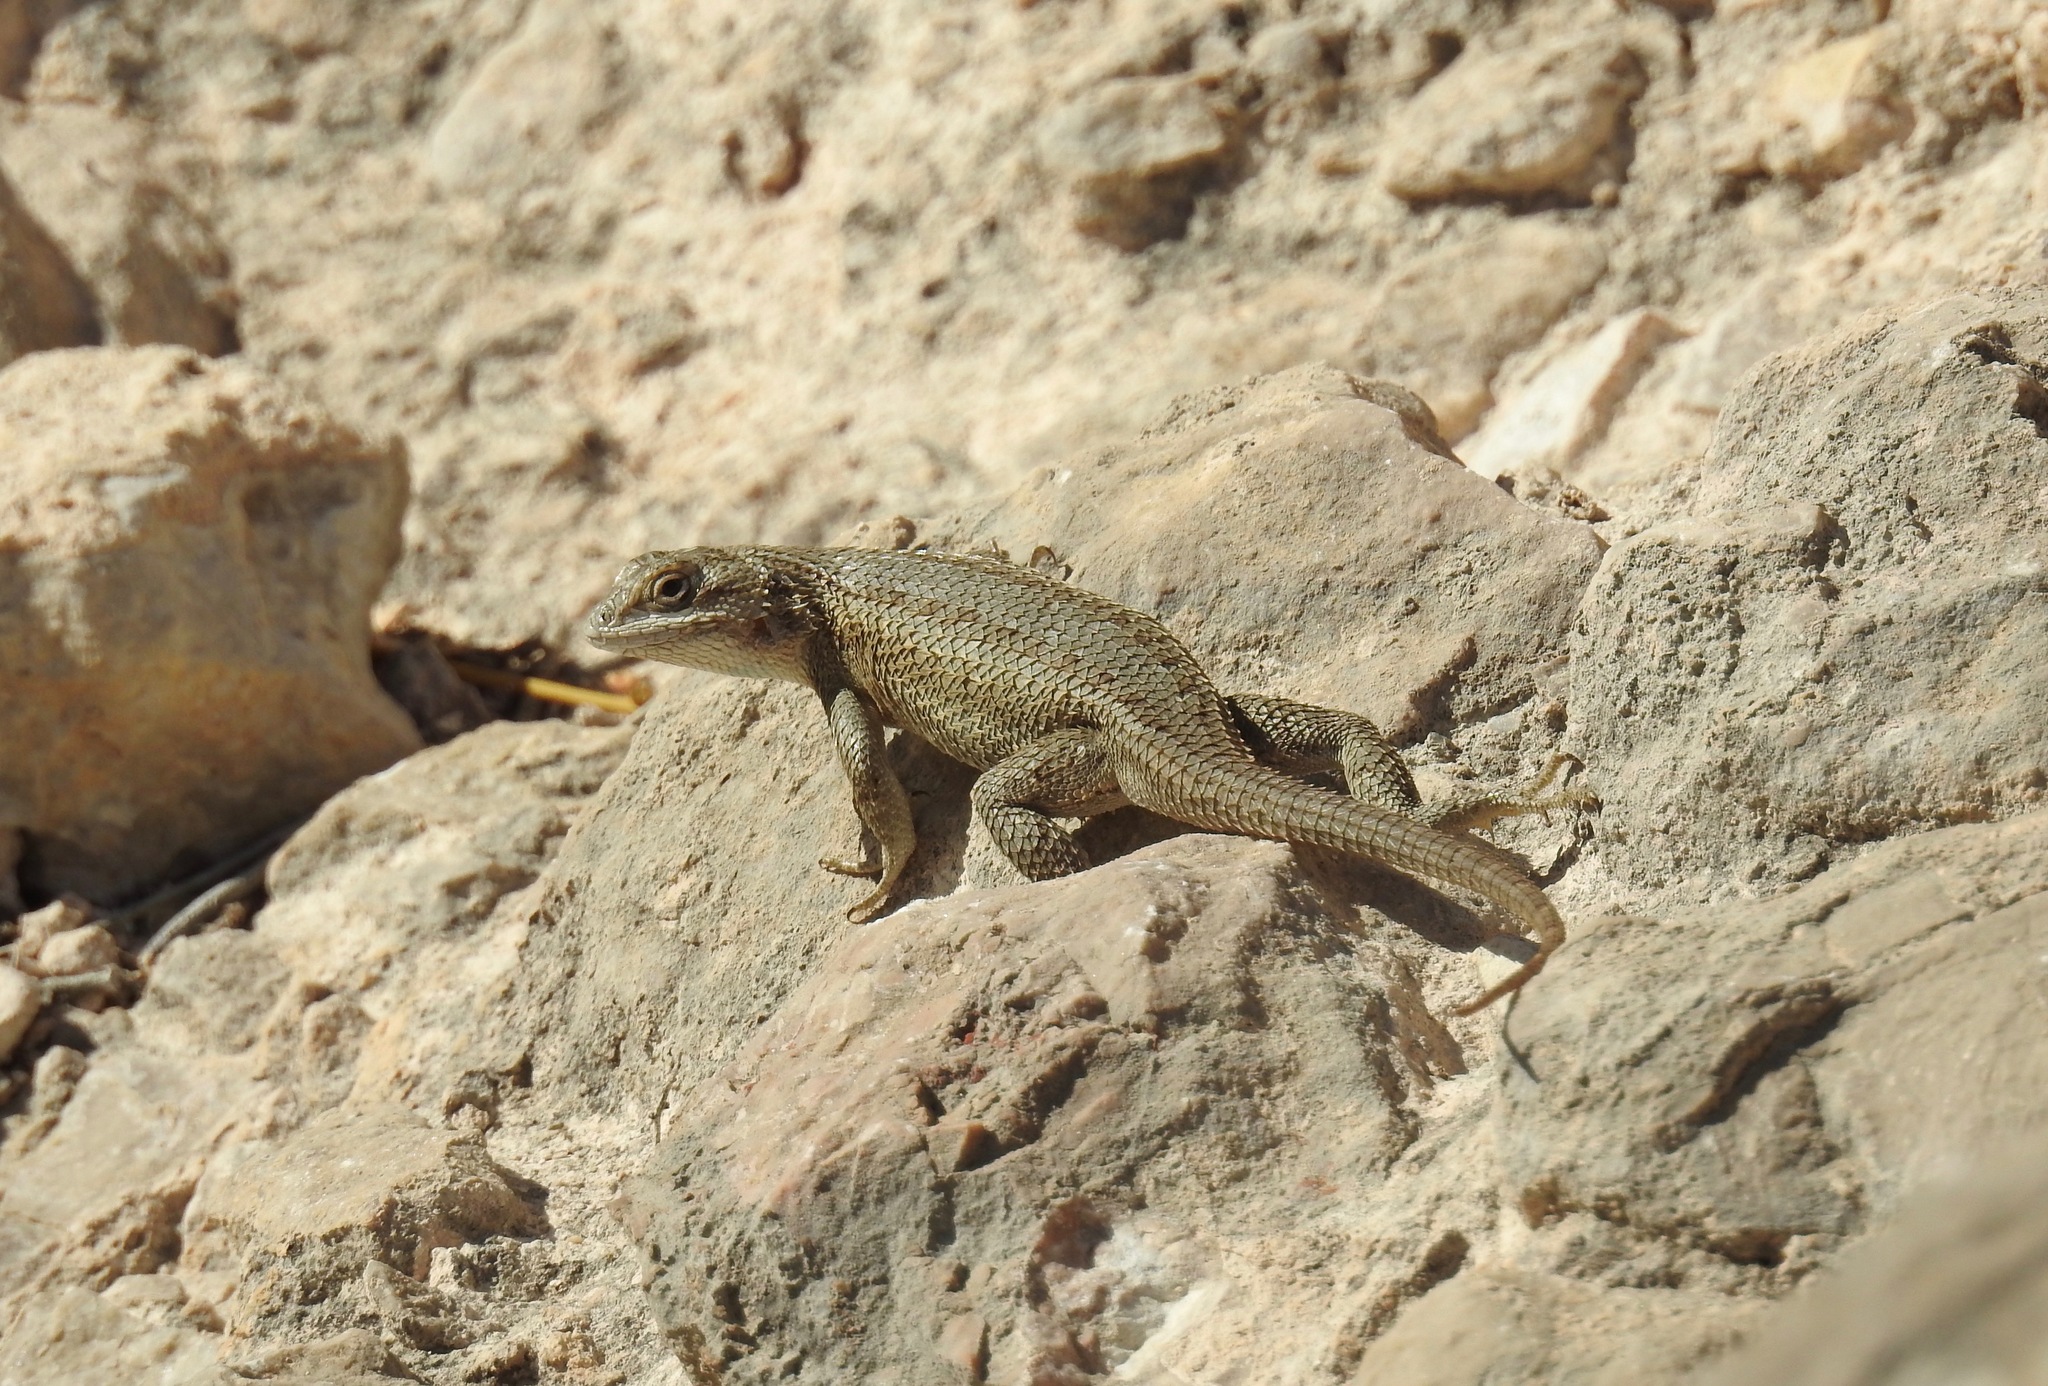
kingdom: Animalia
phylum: Chordata
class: Squamata
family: Phrynosomatidae
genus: Sceloporus
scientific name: Sceloporus cowlesi
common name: White sands prairie lizard
